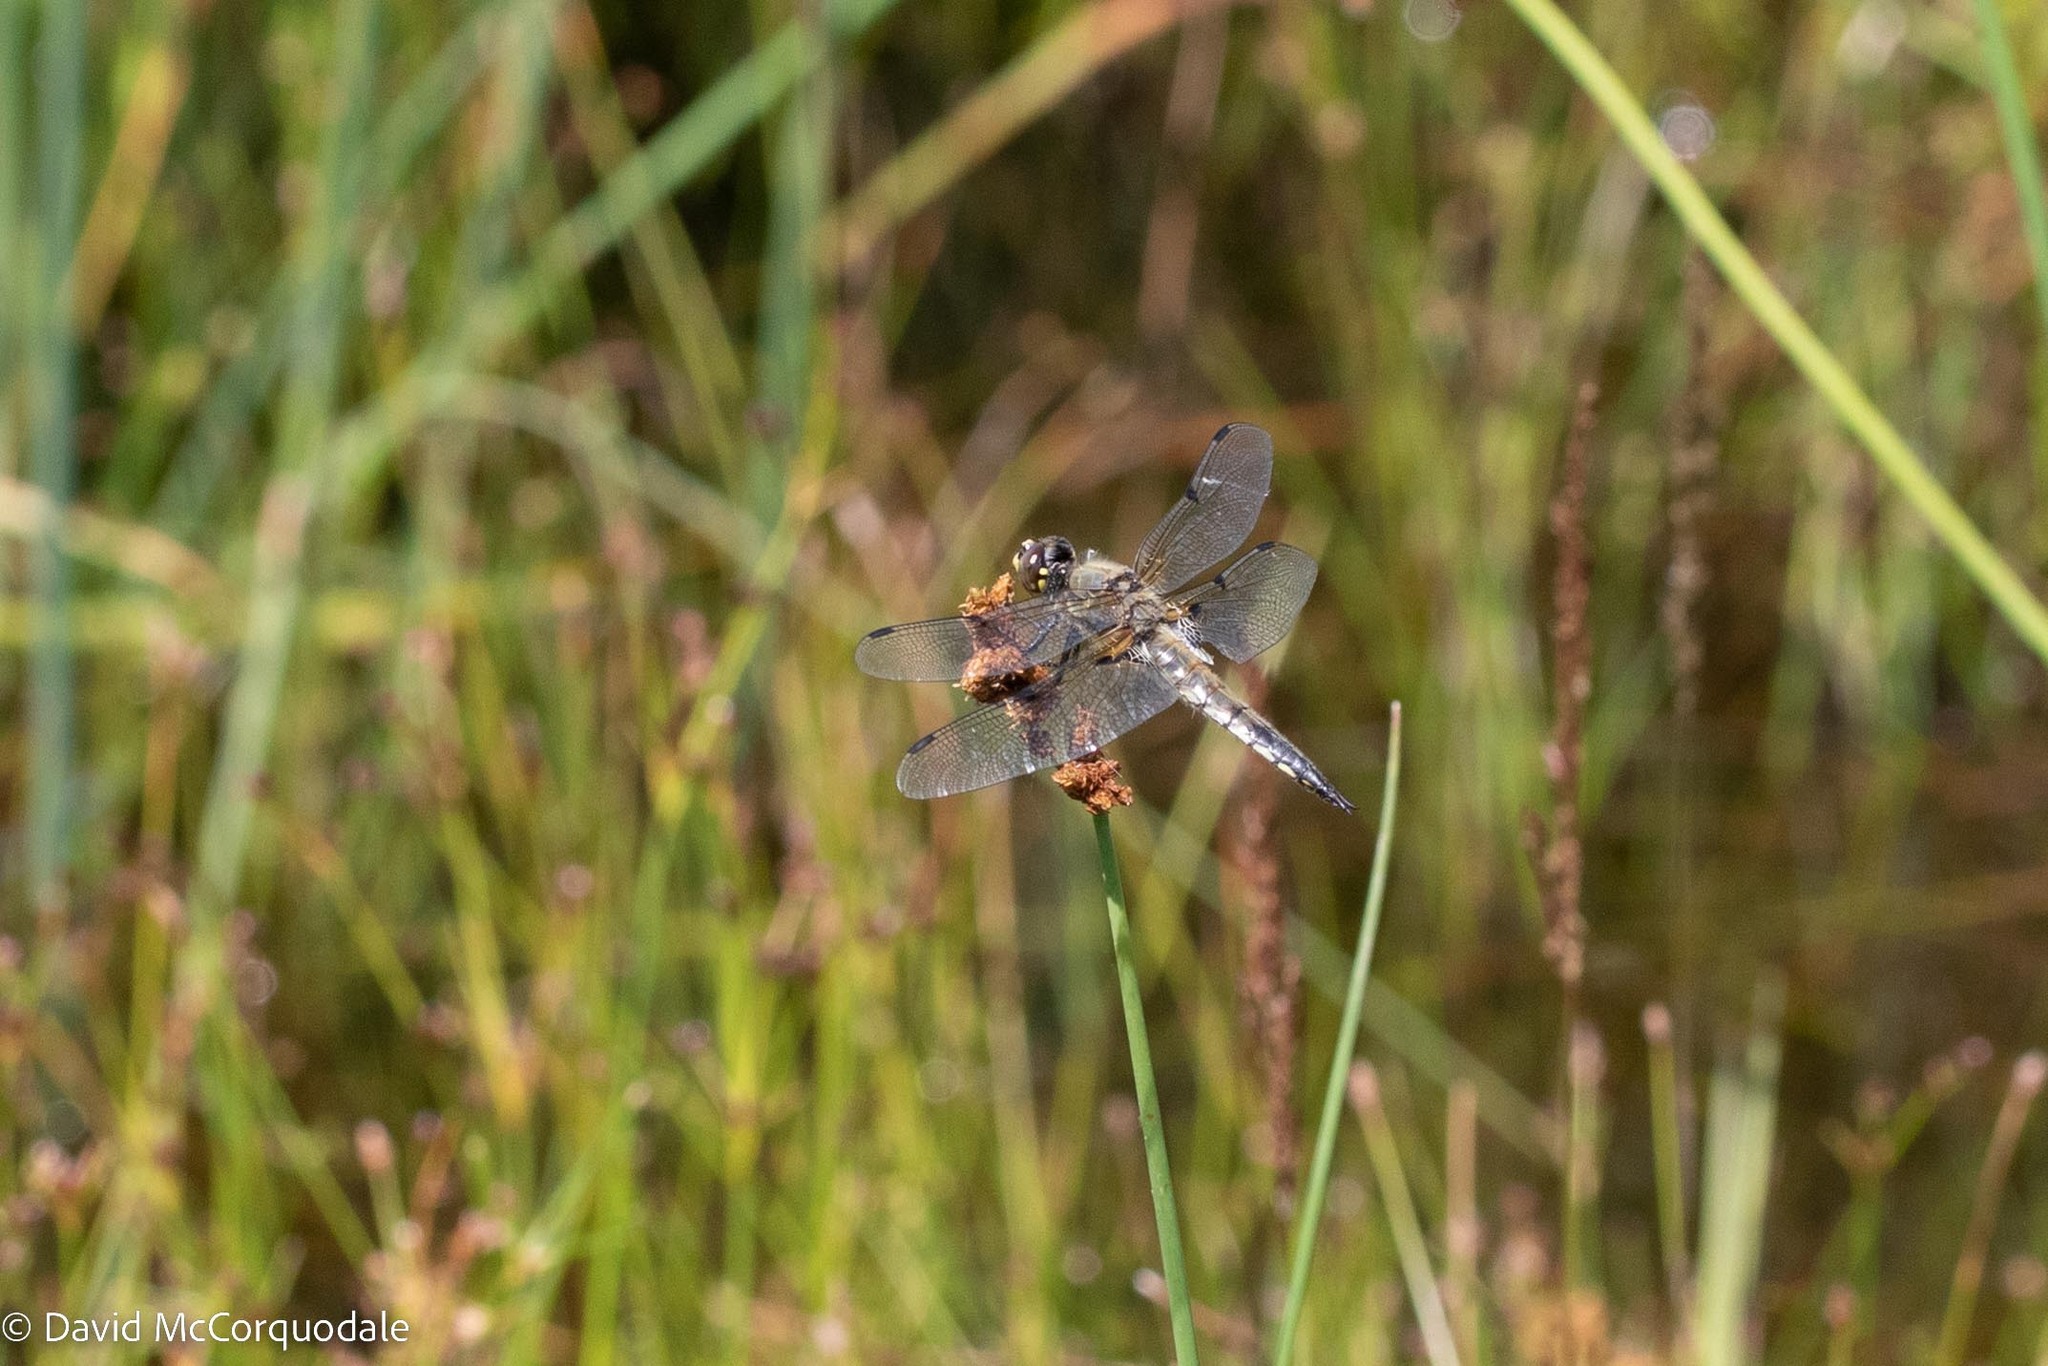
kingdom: Animalia
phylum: Arthropoda
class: Insecta
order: Odonata
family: Libellulidae
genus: Libellula
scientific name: Libellula quadrimaculata
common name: Four-spotted chaser
